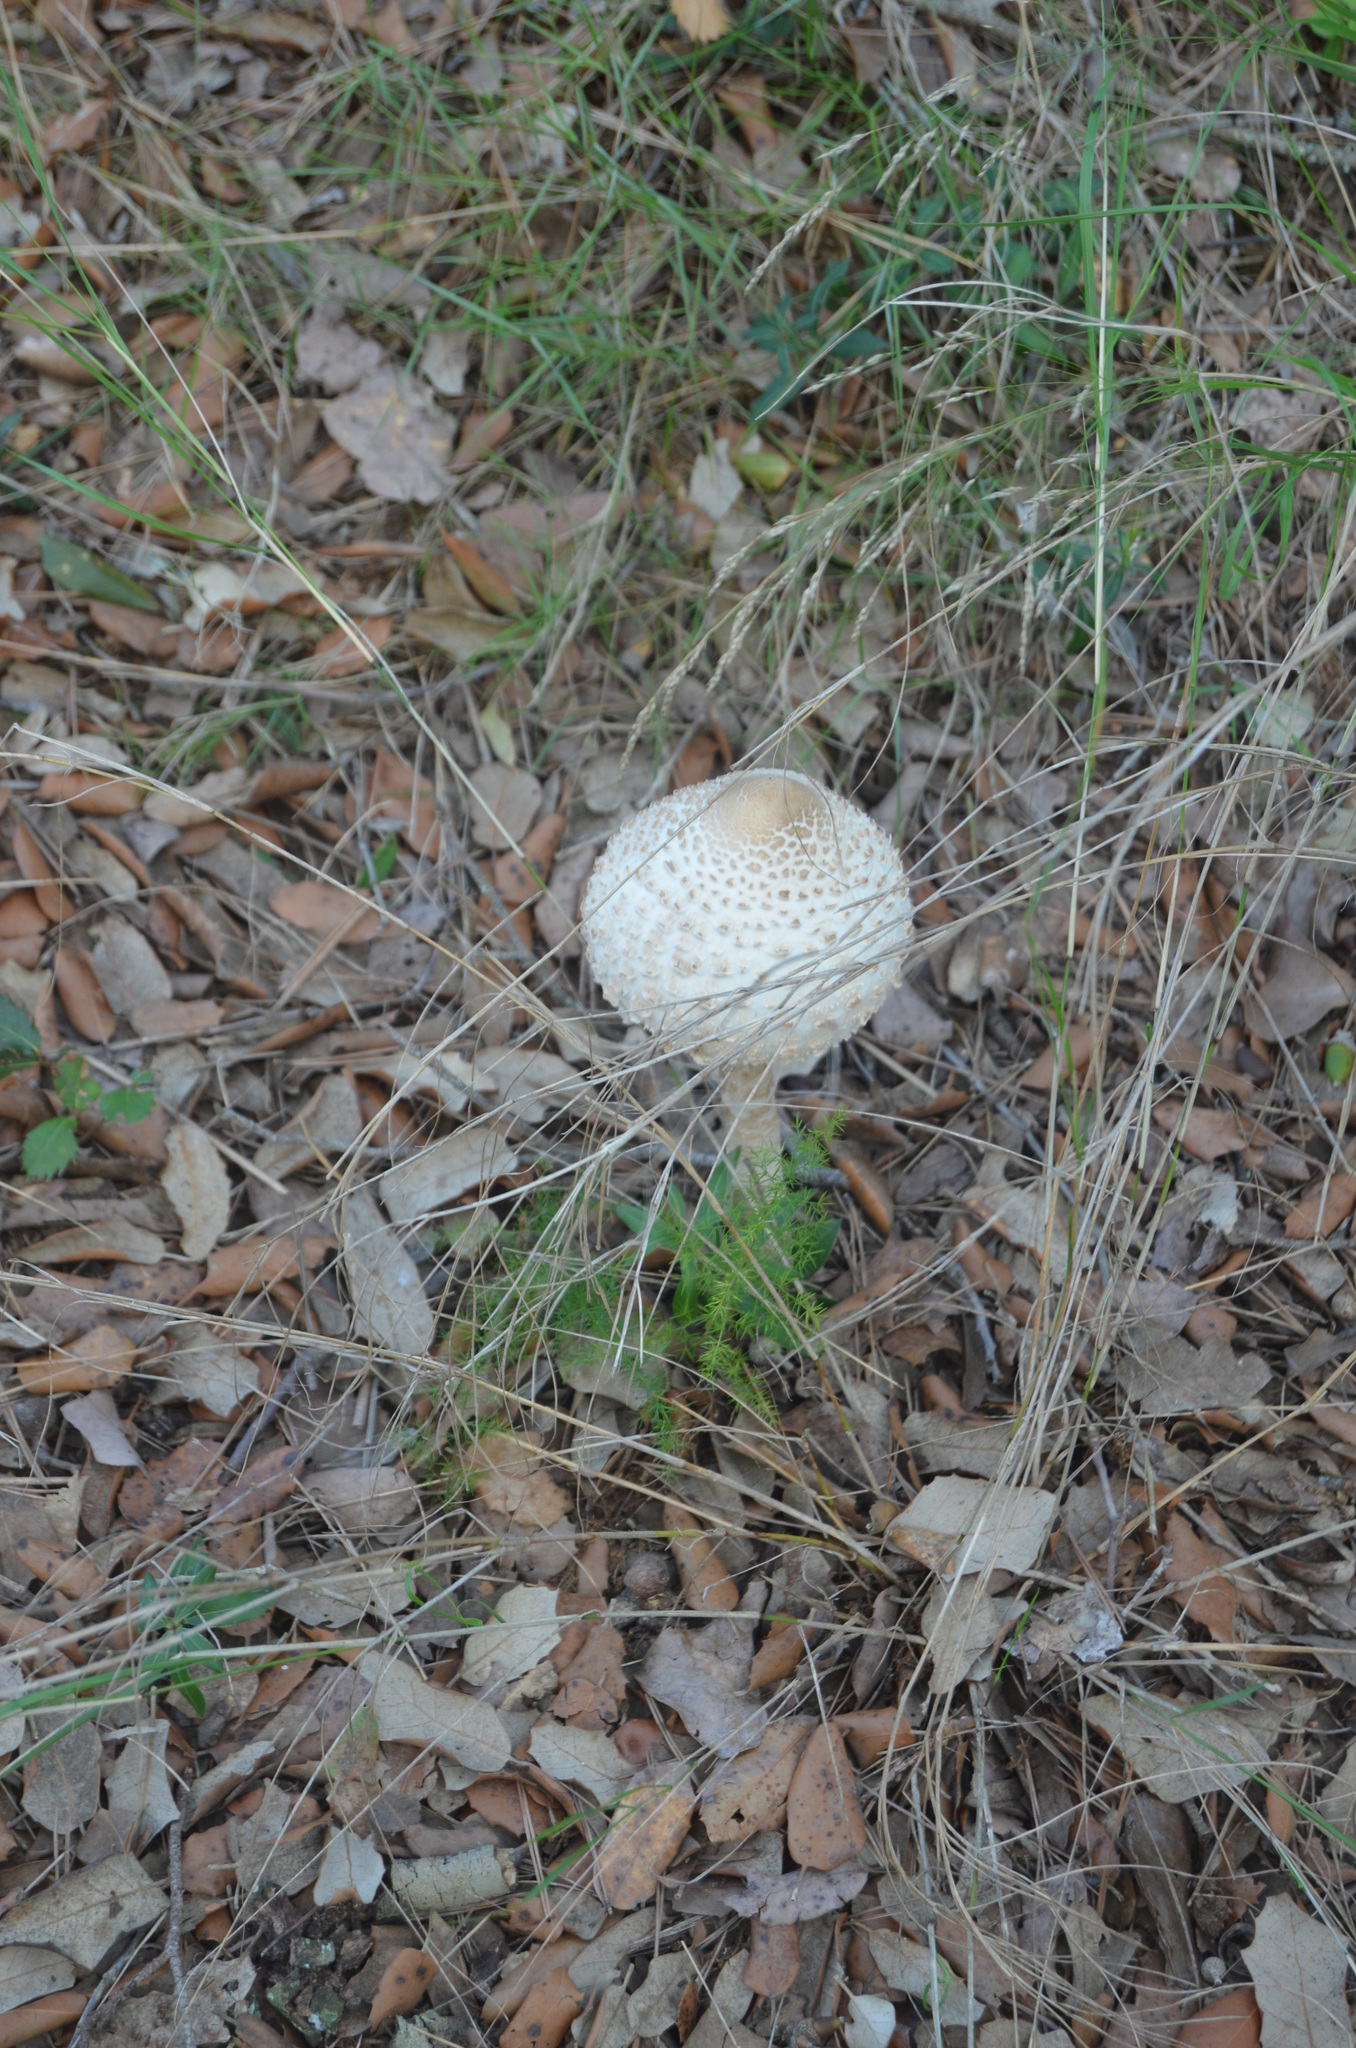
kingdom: Fungi
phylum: Basidiomycota
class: Agaricomycetes
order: Agaricales
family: Agaricaceae
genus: Macrolepiota
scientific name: Macrolepiota procera
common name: Parasol
